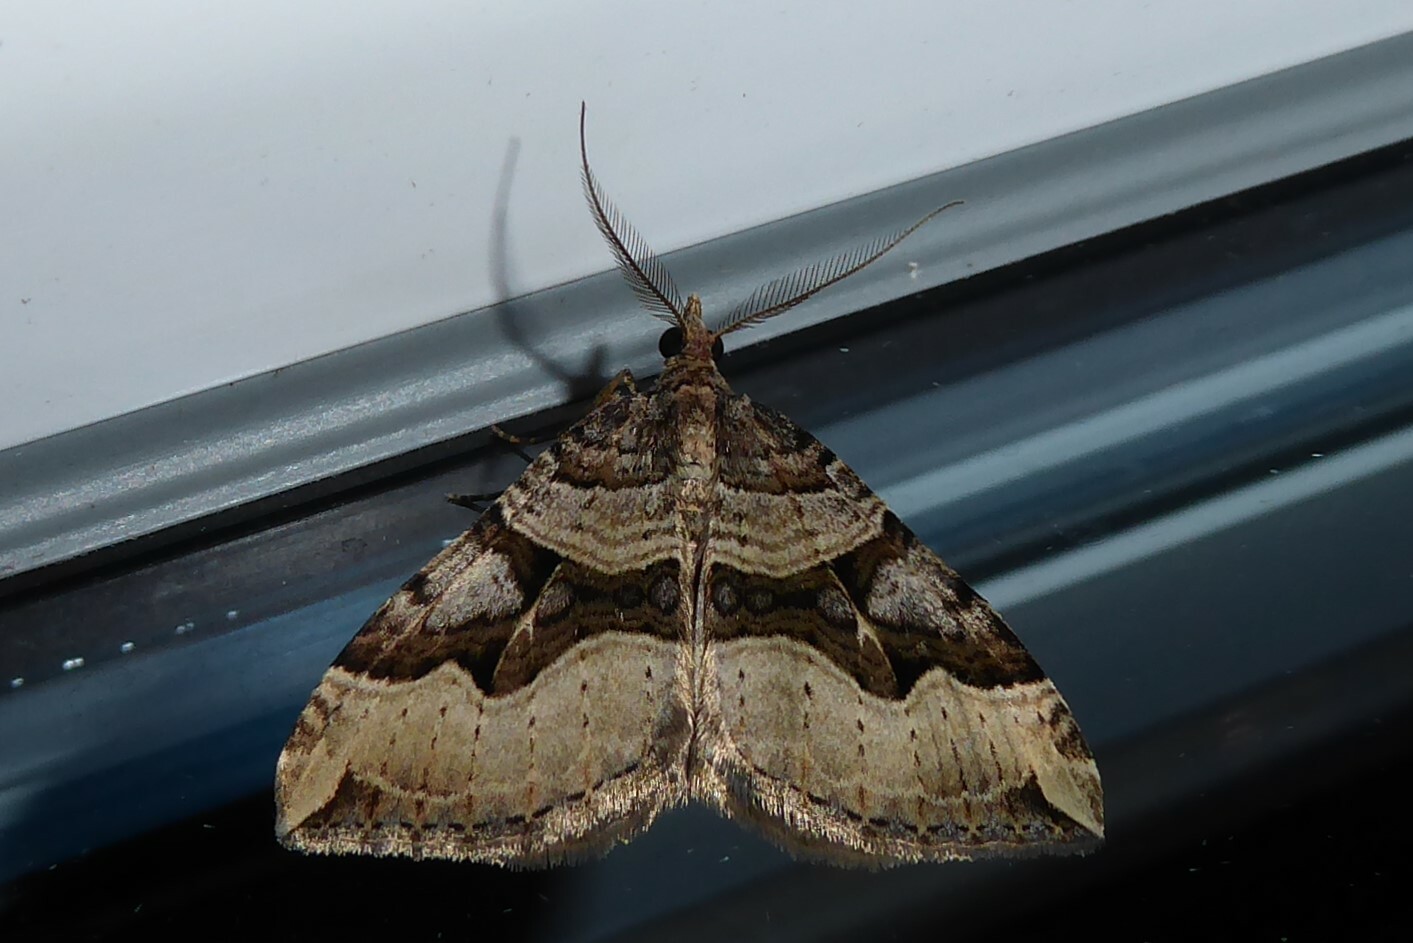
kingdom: Animalia
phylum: Arthropoda
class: Insecta
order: Lepidoptera
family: Geometridae
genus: Xanthorhoe
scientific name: Xanthorhoe semifissata
